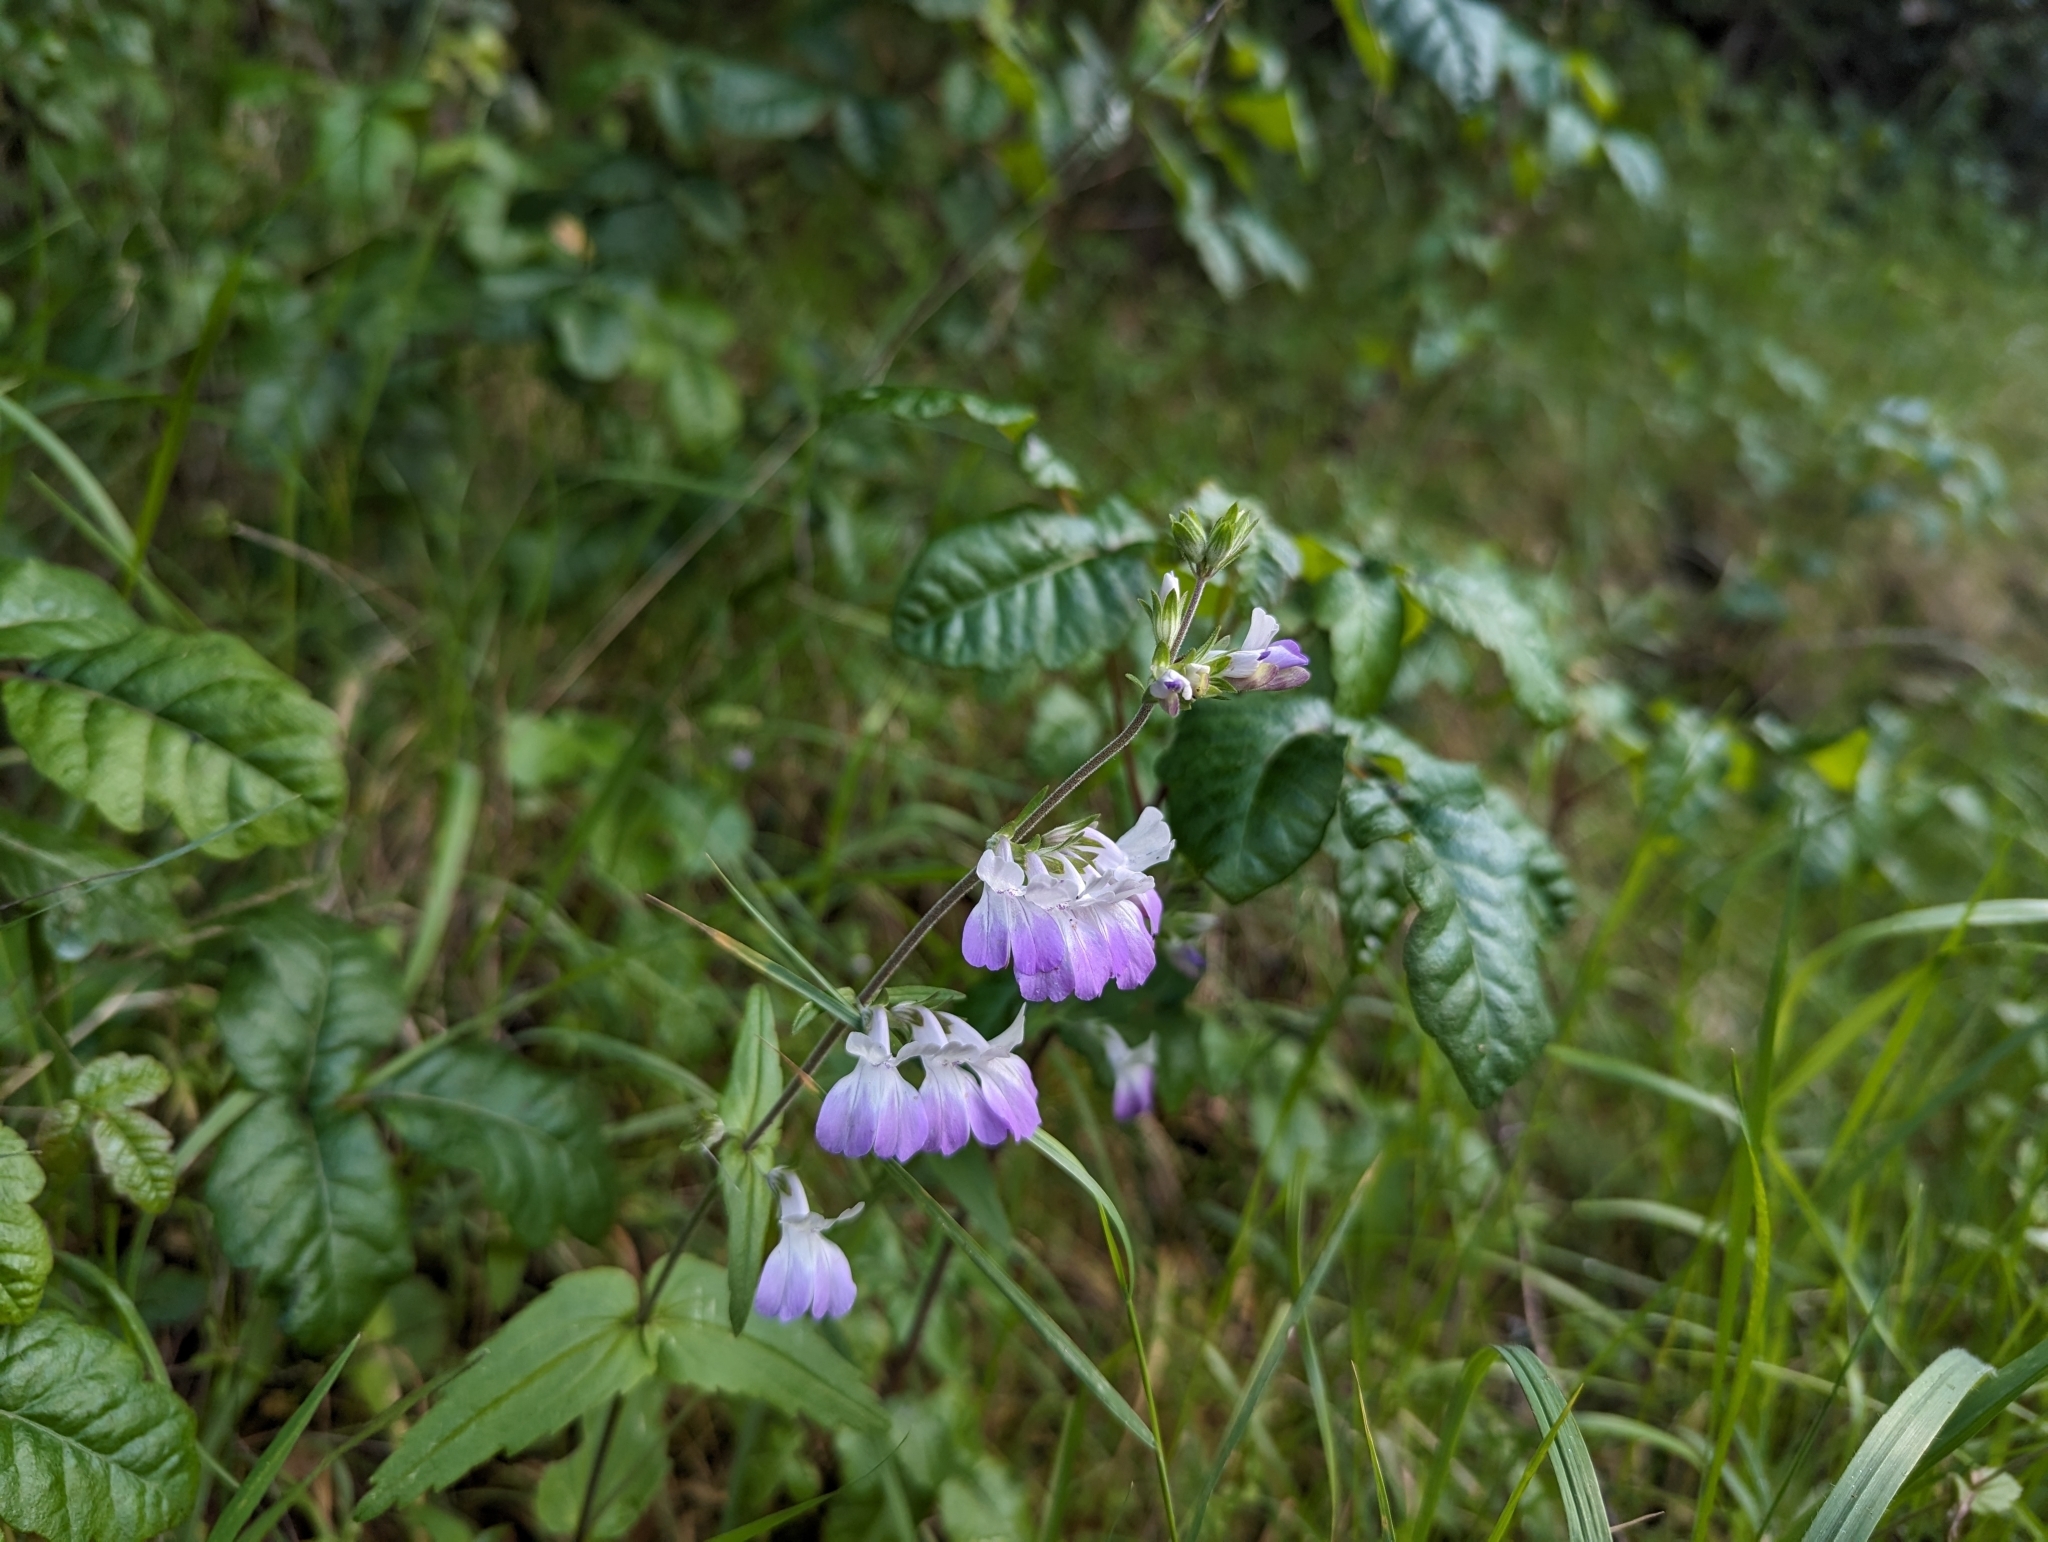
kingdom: Plantae
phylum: Tracheophyta
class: Magnoliopsida
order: Lamiales
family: Plantaginaceae
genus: Collinsia
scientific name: Collinsia multicolor
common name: San francisco collinsia
